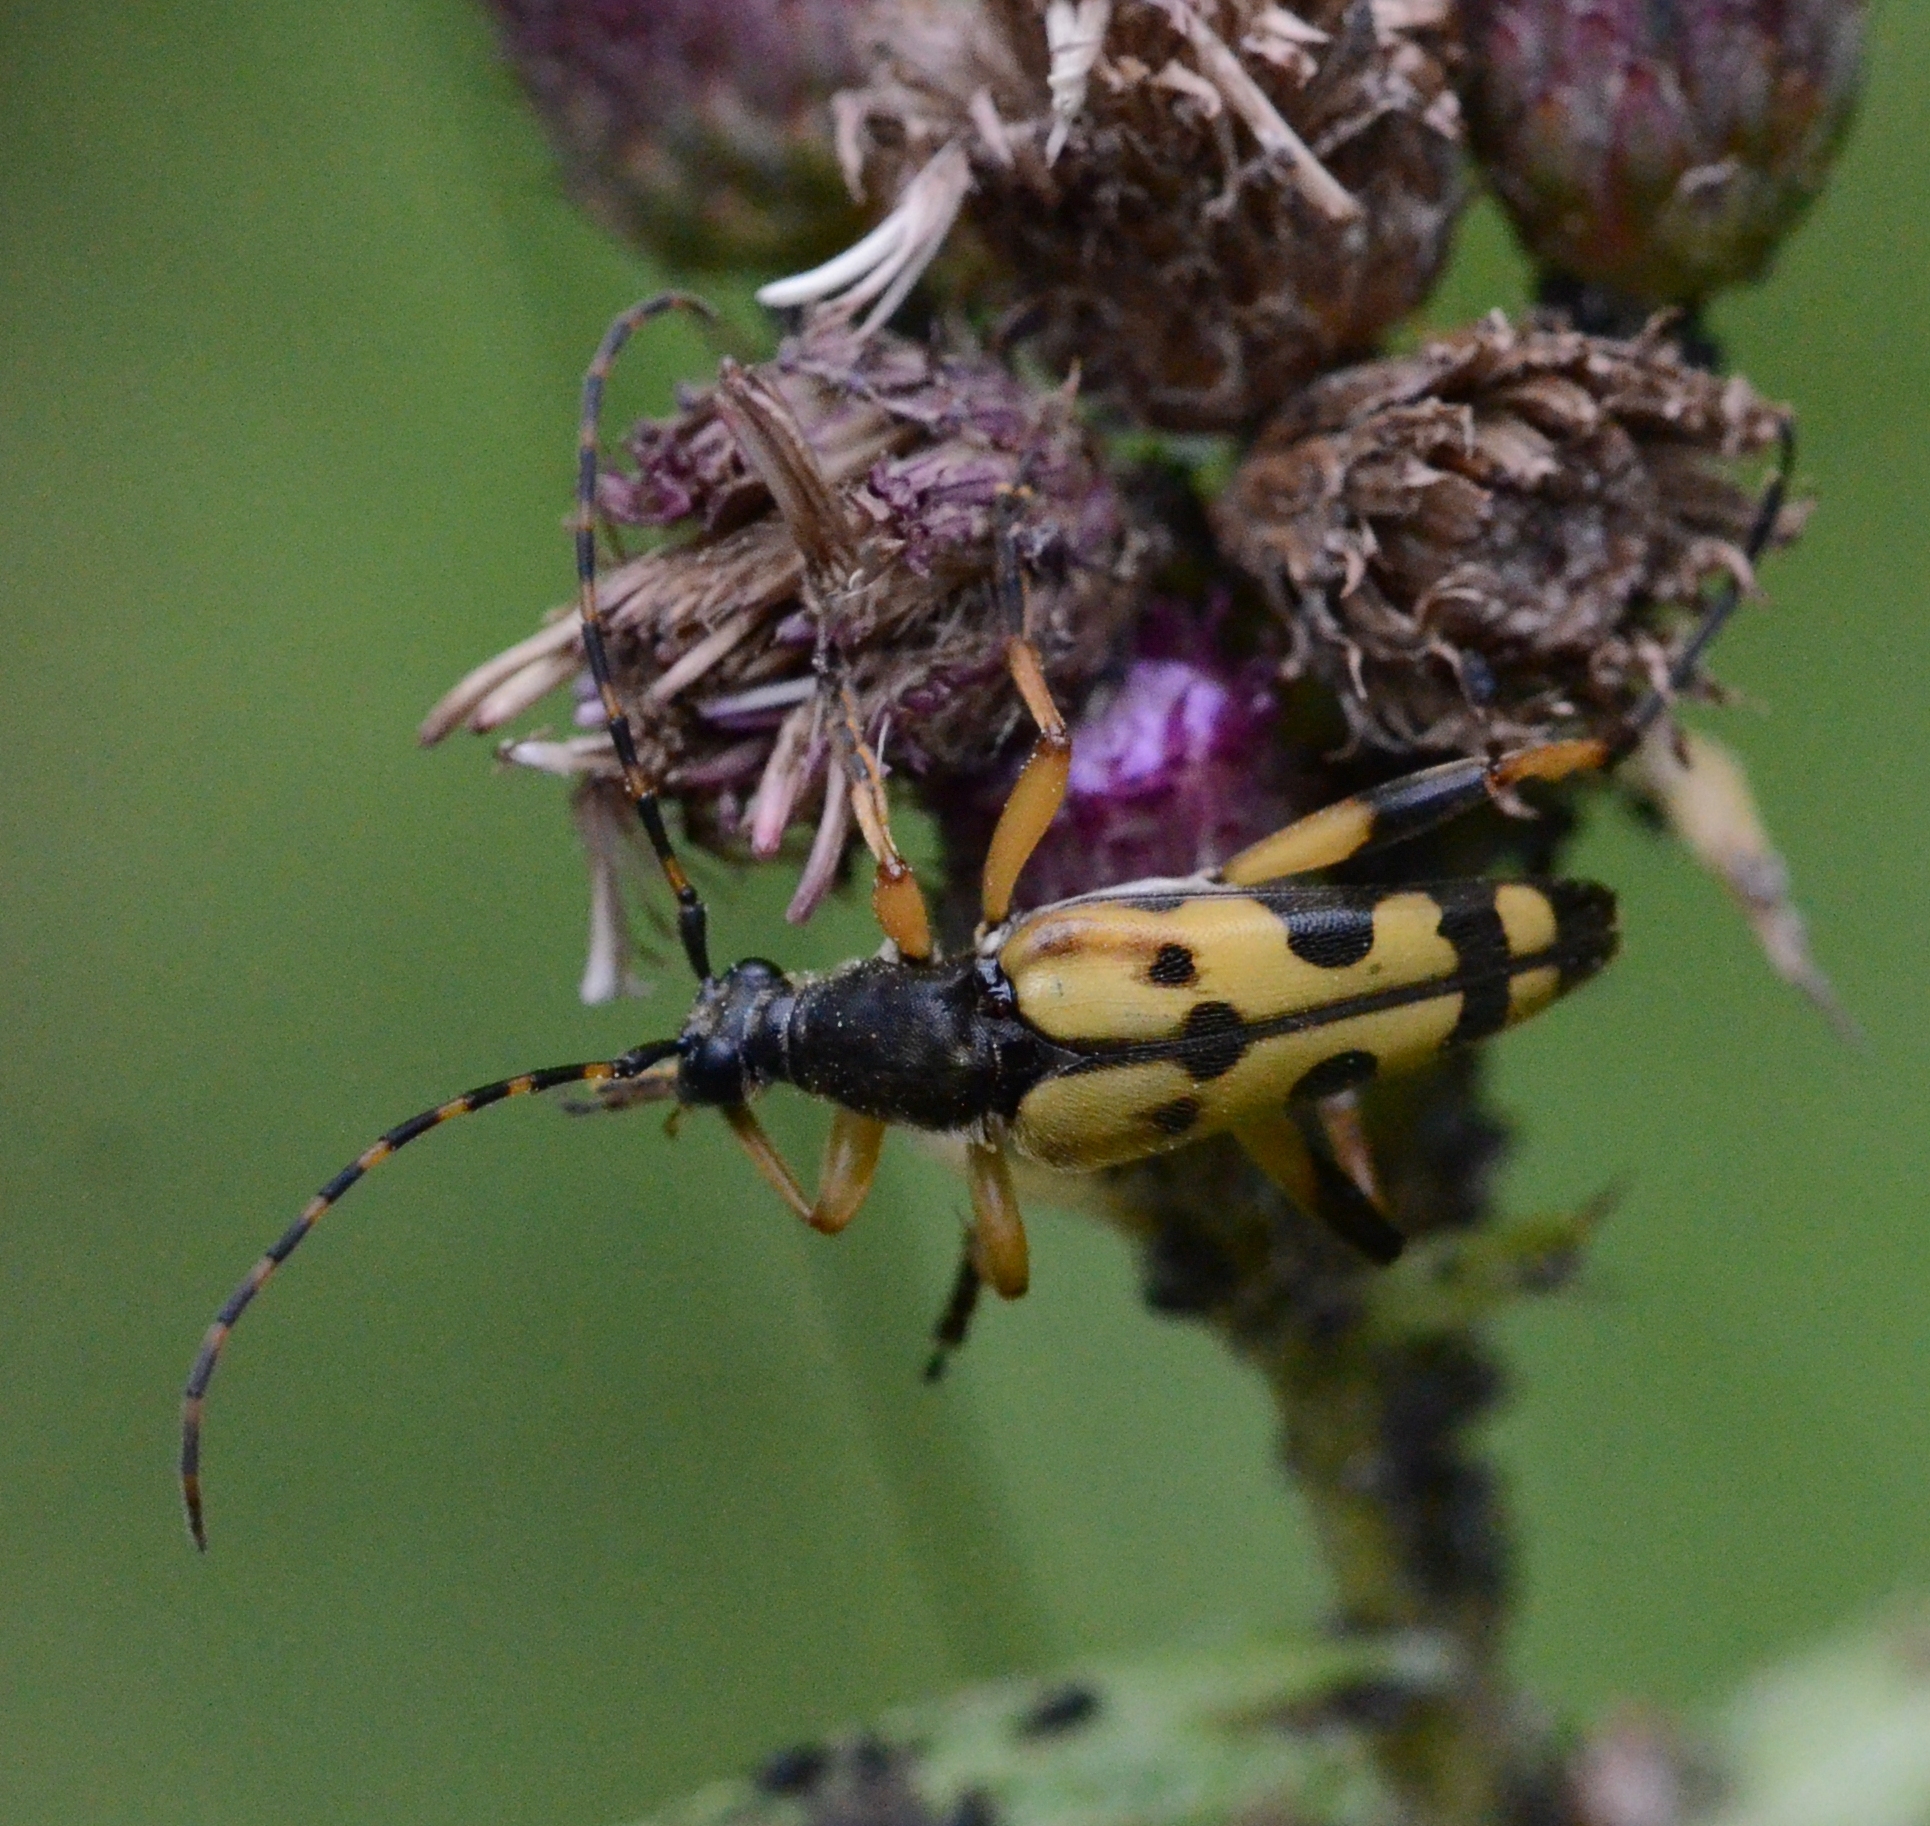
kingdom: Animalia
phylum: Arthropoda
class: Insecta
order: Coleoptera
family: Cerambycidae
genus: Rutpela
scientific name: Rutpela maculata
